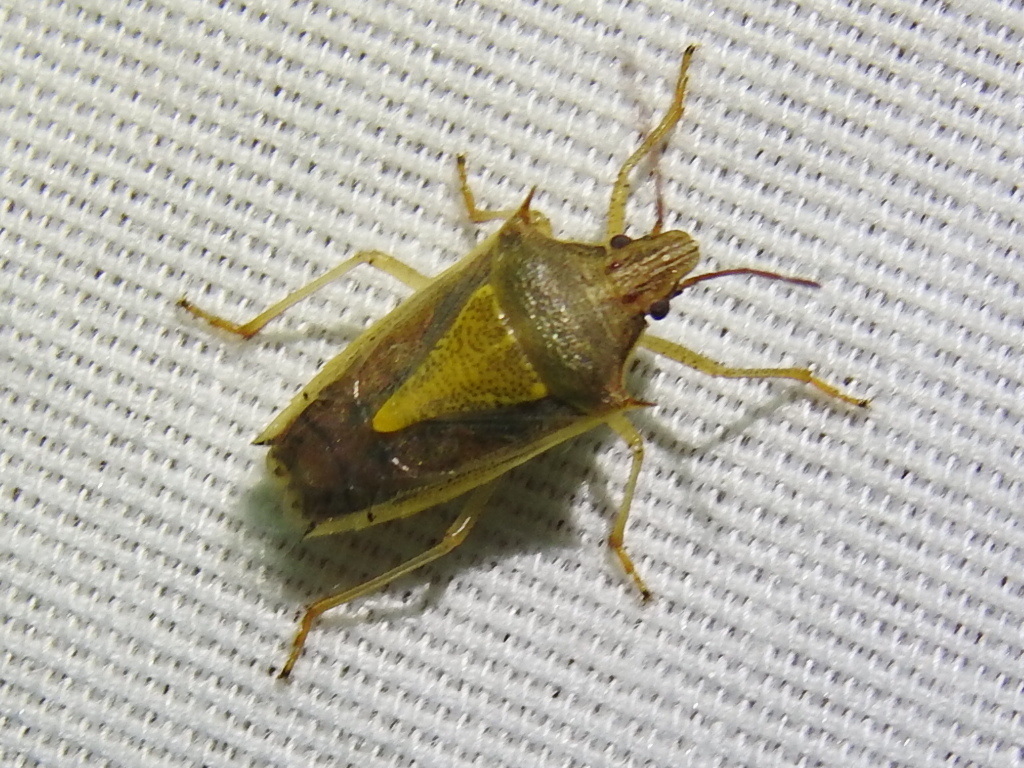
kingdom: Animalia
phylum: Arthropoda
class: Insecta
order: Hemiptera
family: Pentatomidae
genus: Oebalus
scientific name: Oebalus pugnax
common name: Rice stink bug
